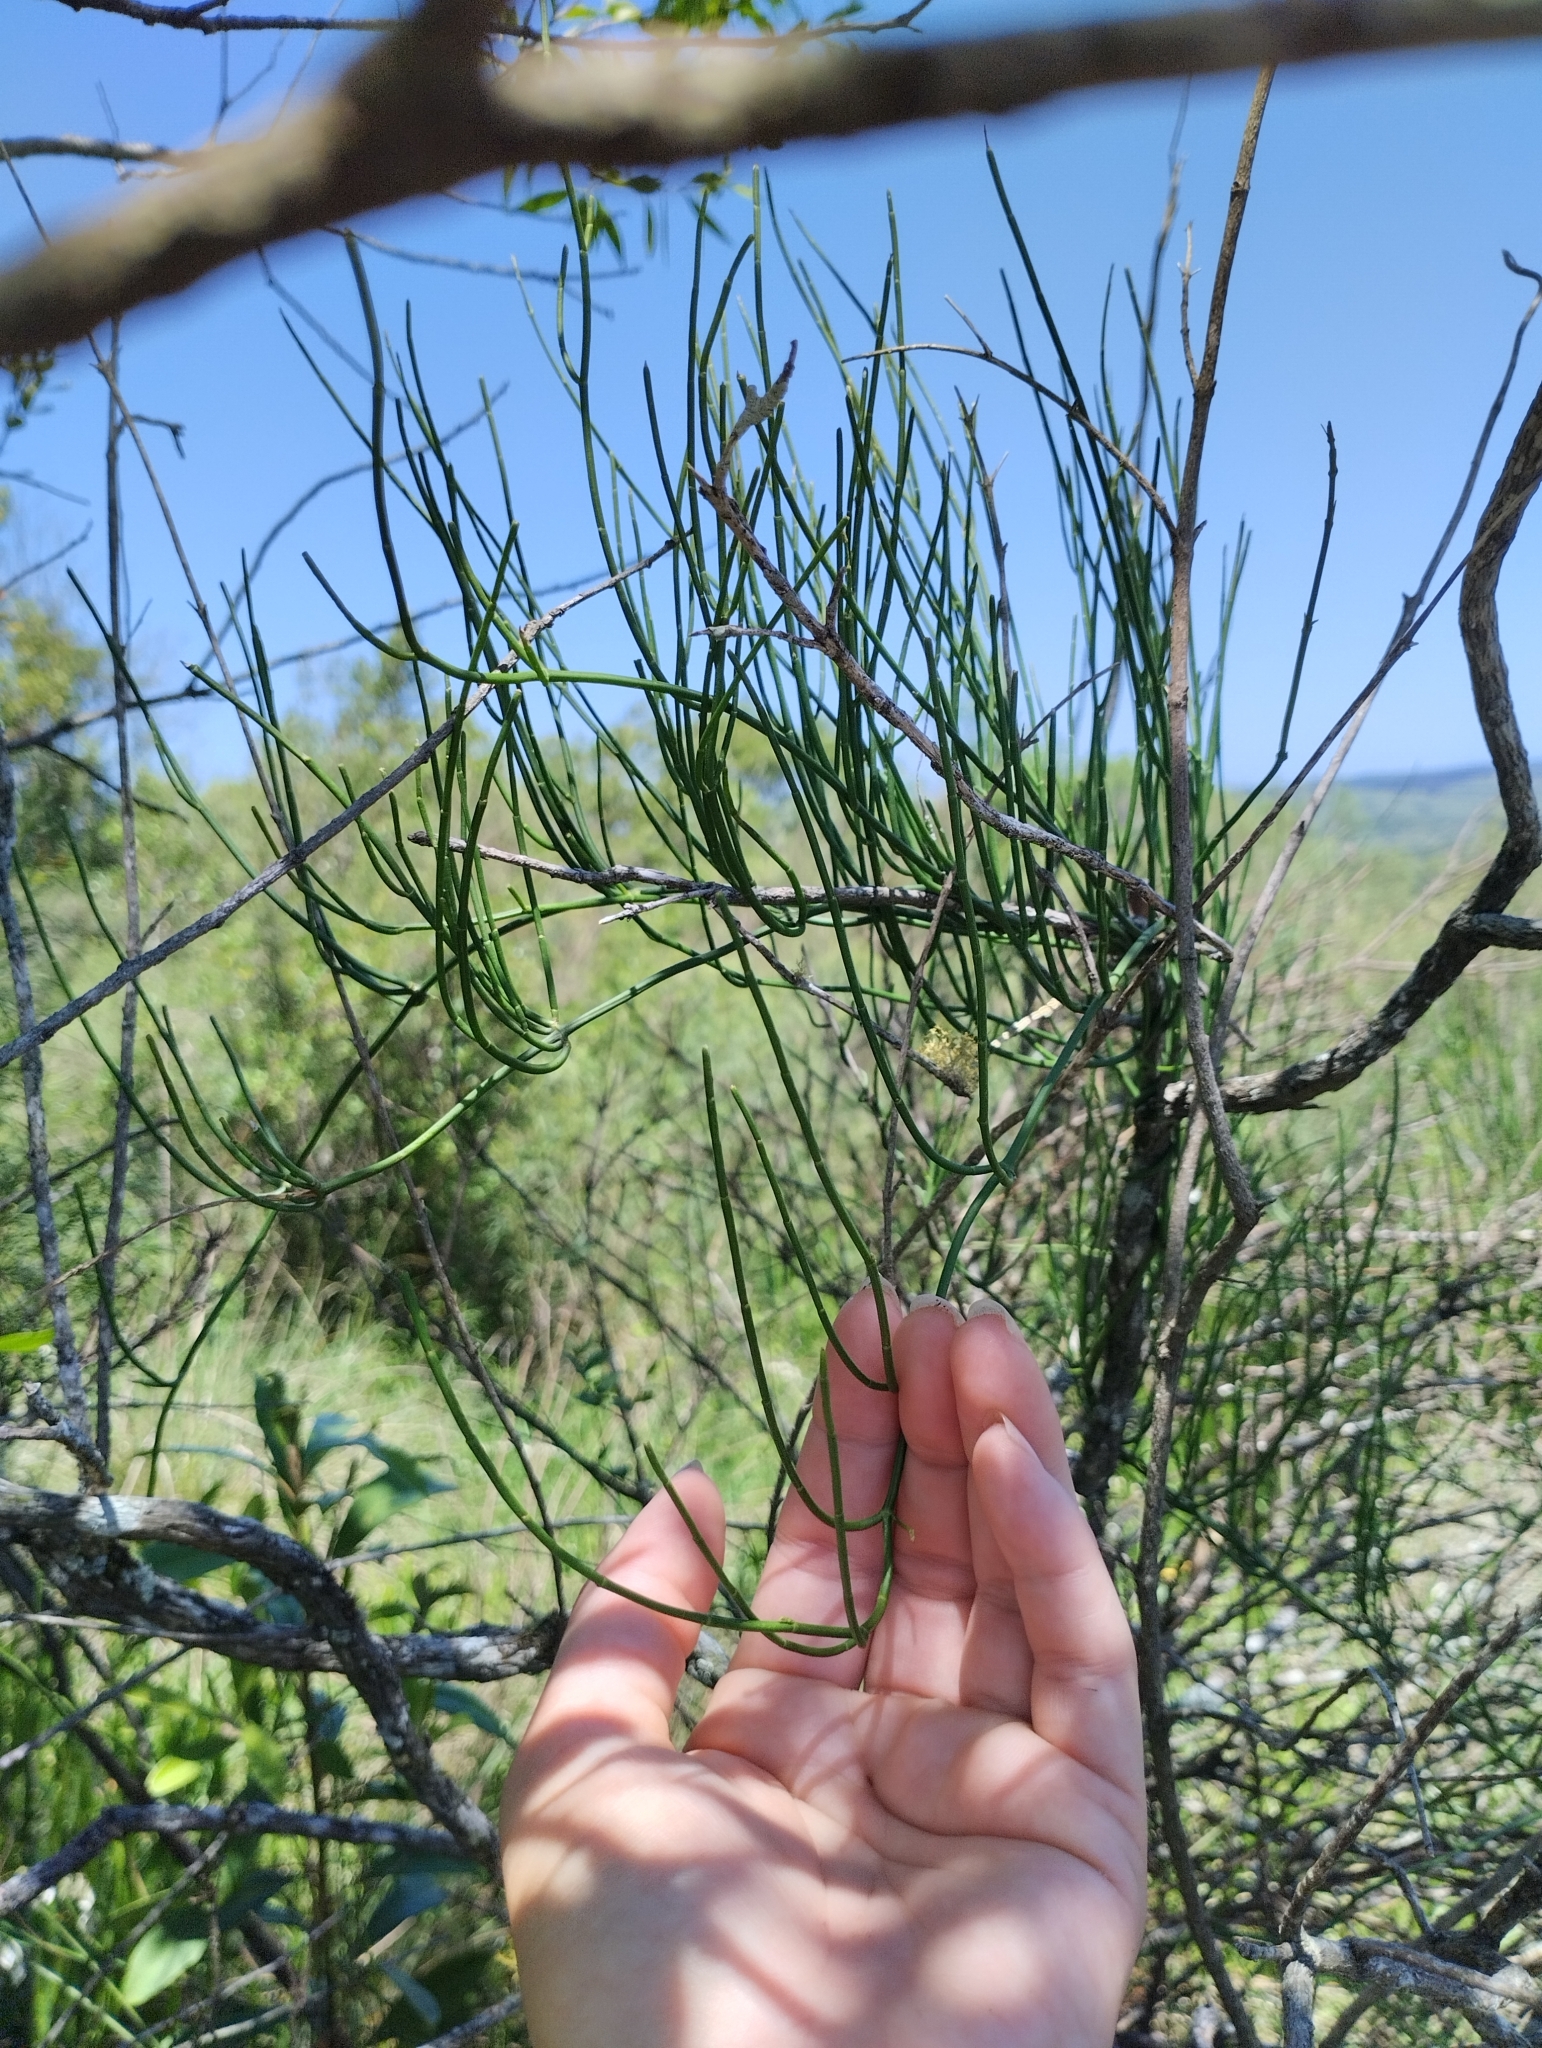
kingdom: Plantae
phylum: Tracheophyta
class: Gnetopsida
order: Ephedrales
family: Ephedraceae
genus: Ephedra
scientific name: Ephedra tweedieana
